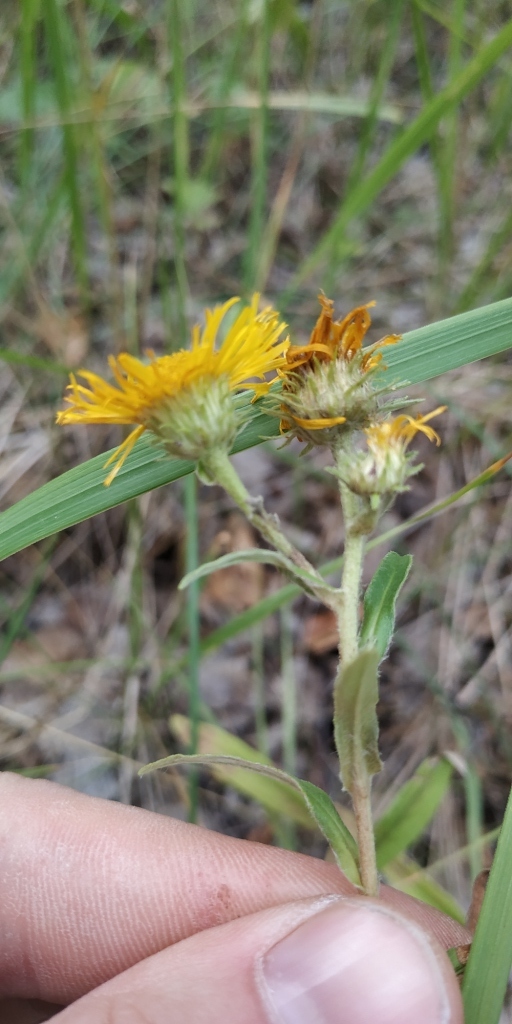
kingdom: Plantae
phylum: Tracheophyta
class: Magnoliopsida
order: Asterales
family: Asteraceae
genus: Pentanema
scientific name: Pentanema britannicum
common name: British elecampane
